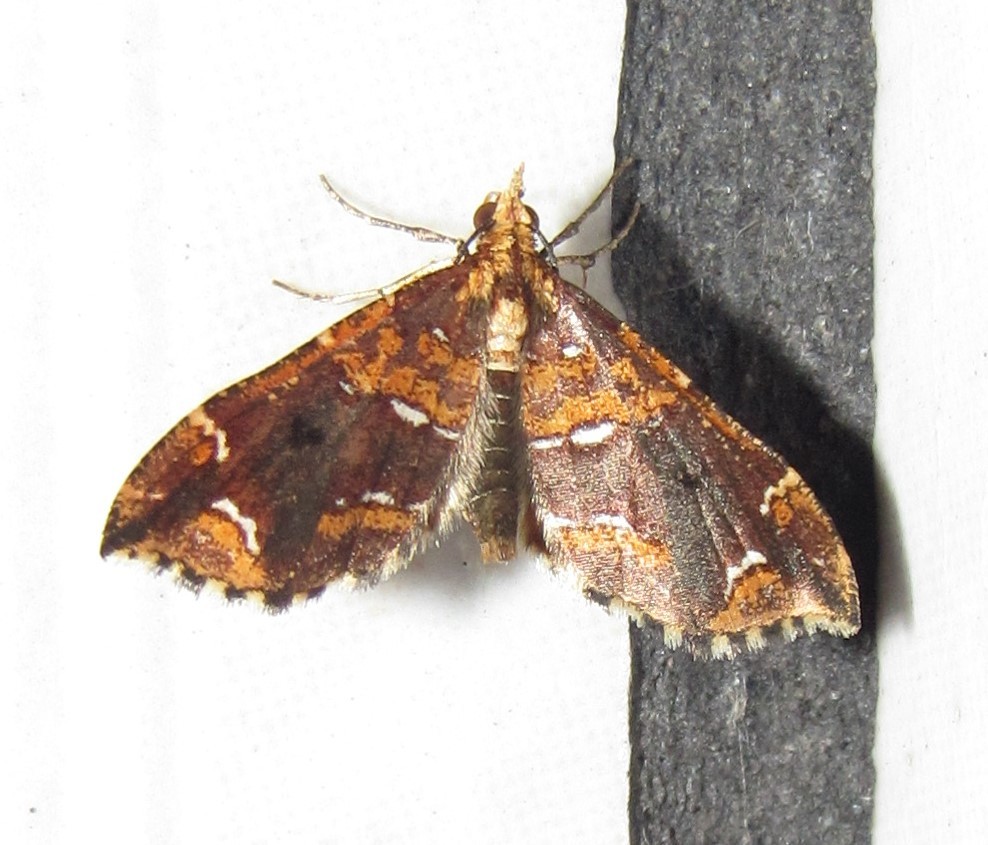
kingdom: Animalia
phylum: Arthropoda
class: Insecta
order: Lepidoptera
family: Geometridae
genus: Psaliodes
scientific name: Psaliodes tripita
